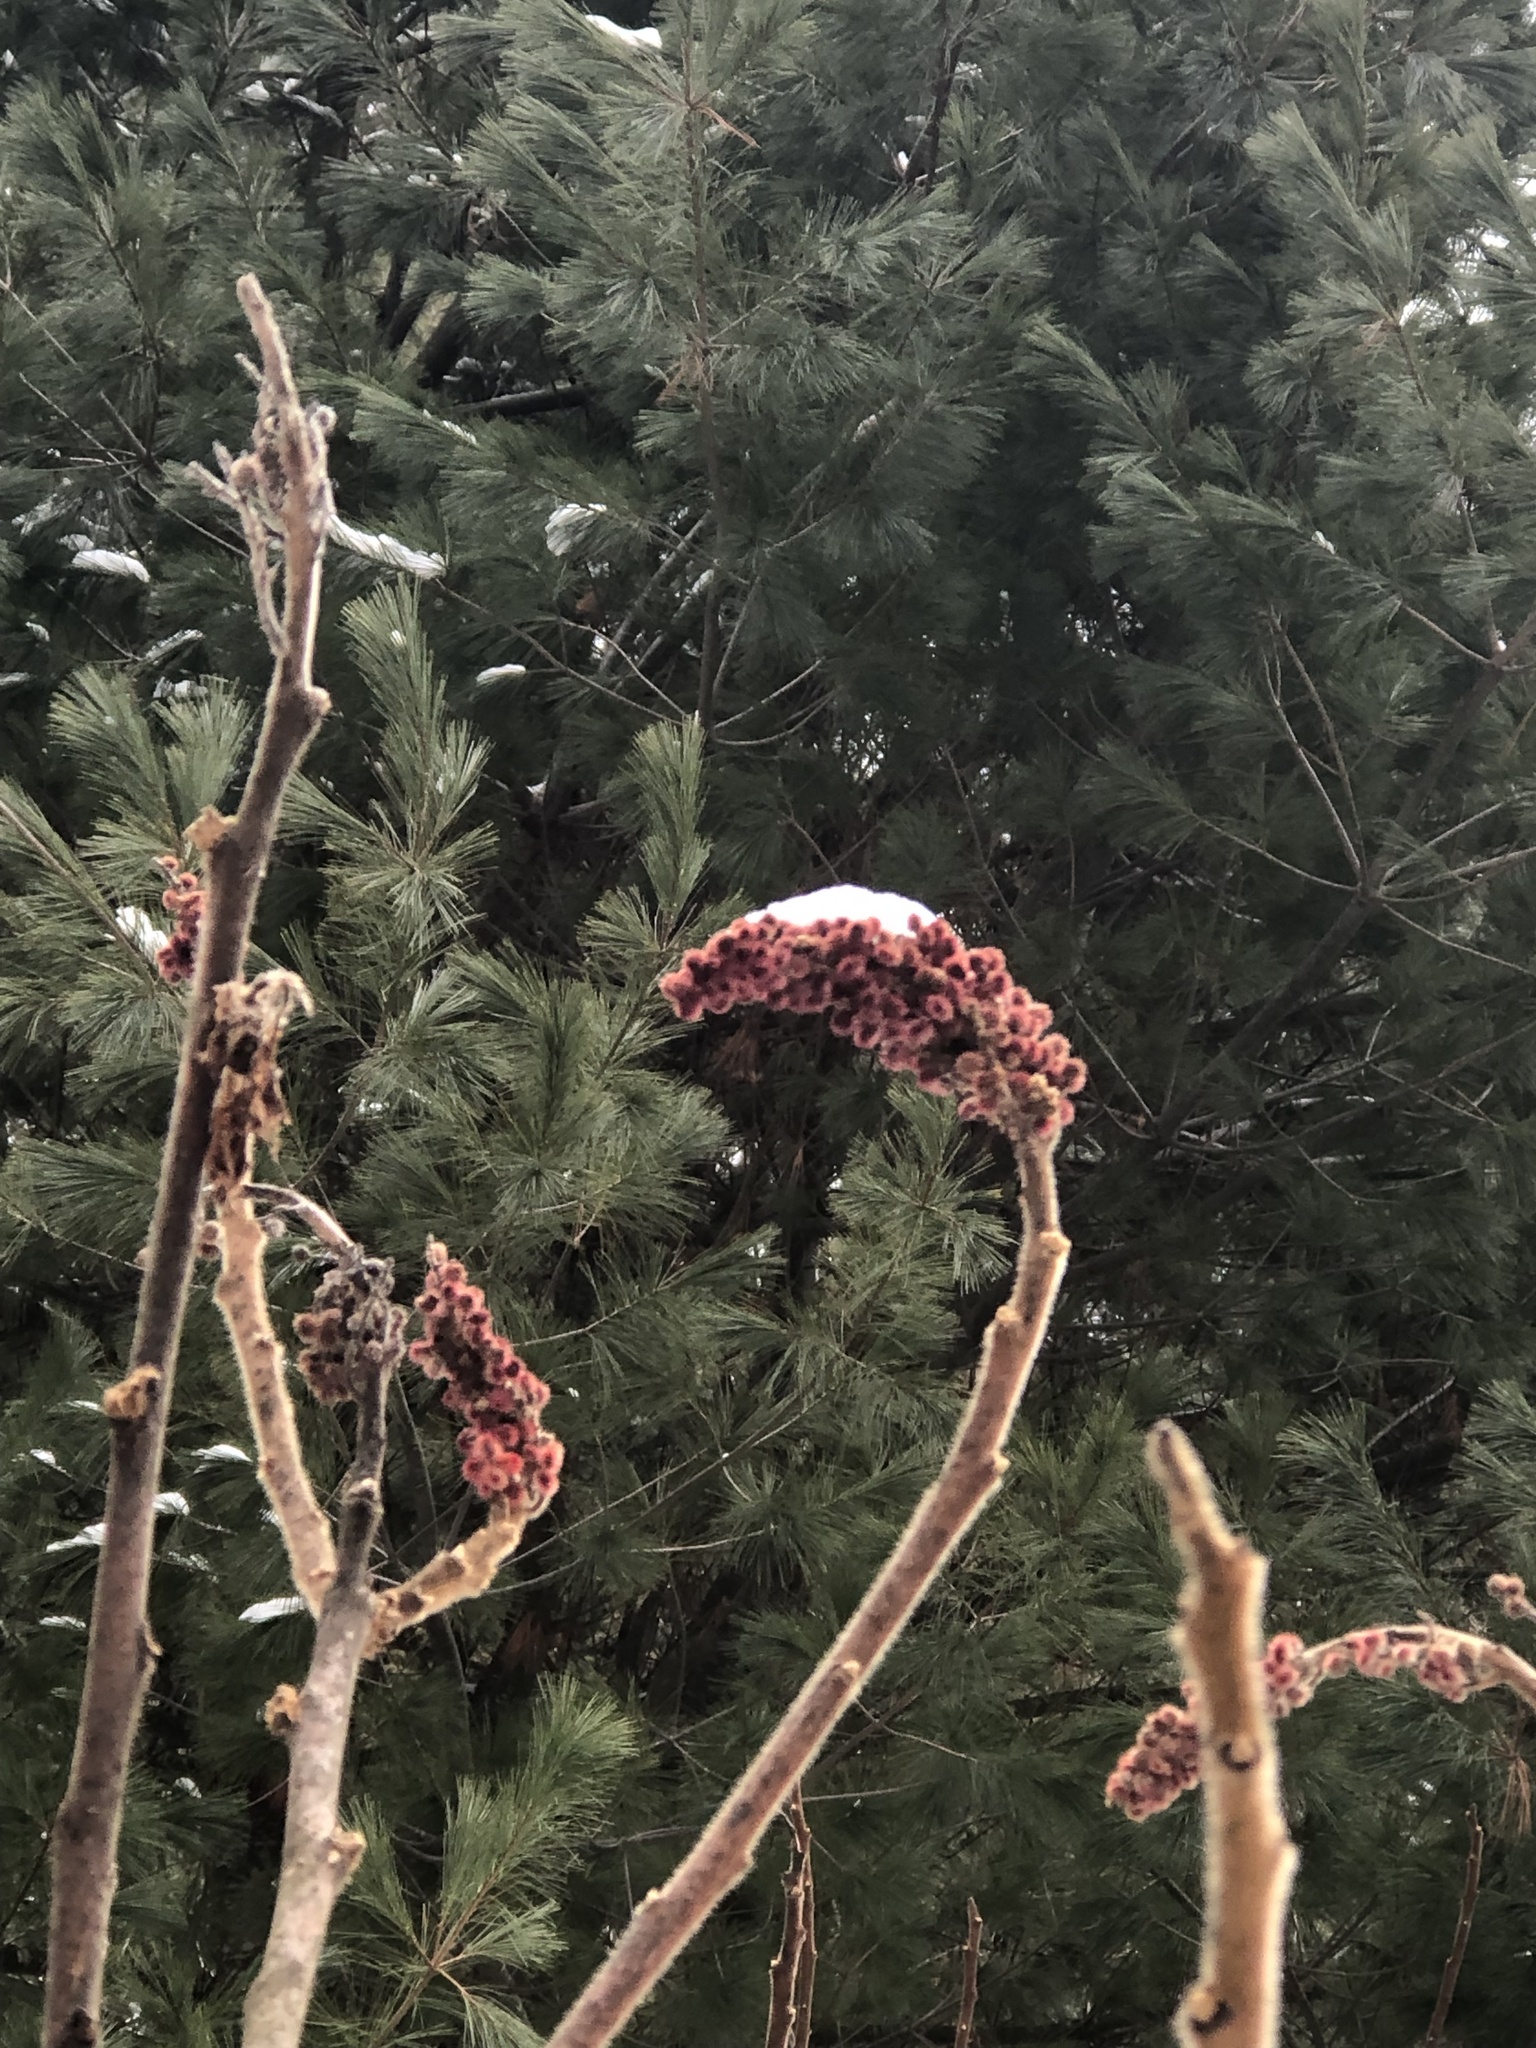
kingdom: Plantae
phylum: Tracheophyta
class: Magnoliopsida
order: Sapindales
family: Anacardiaceae
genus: Rhus
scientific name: Rhus typhina
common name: Staghorn sumac
